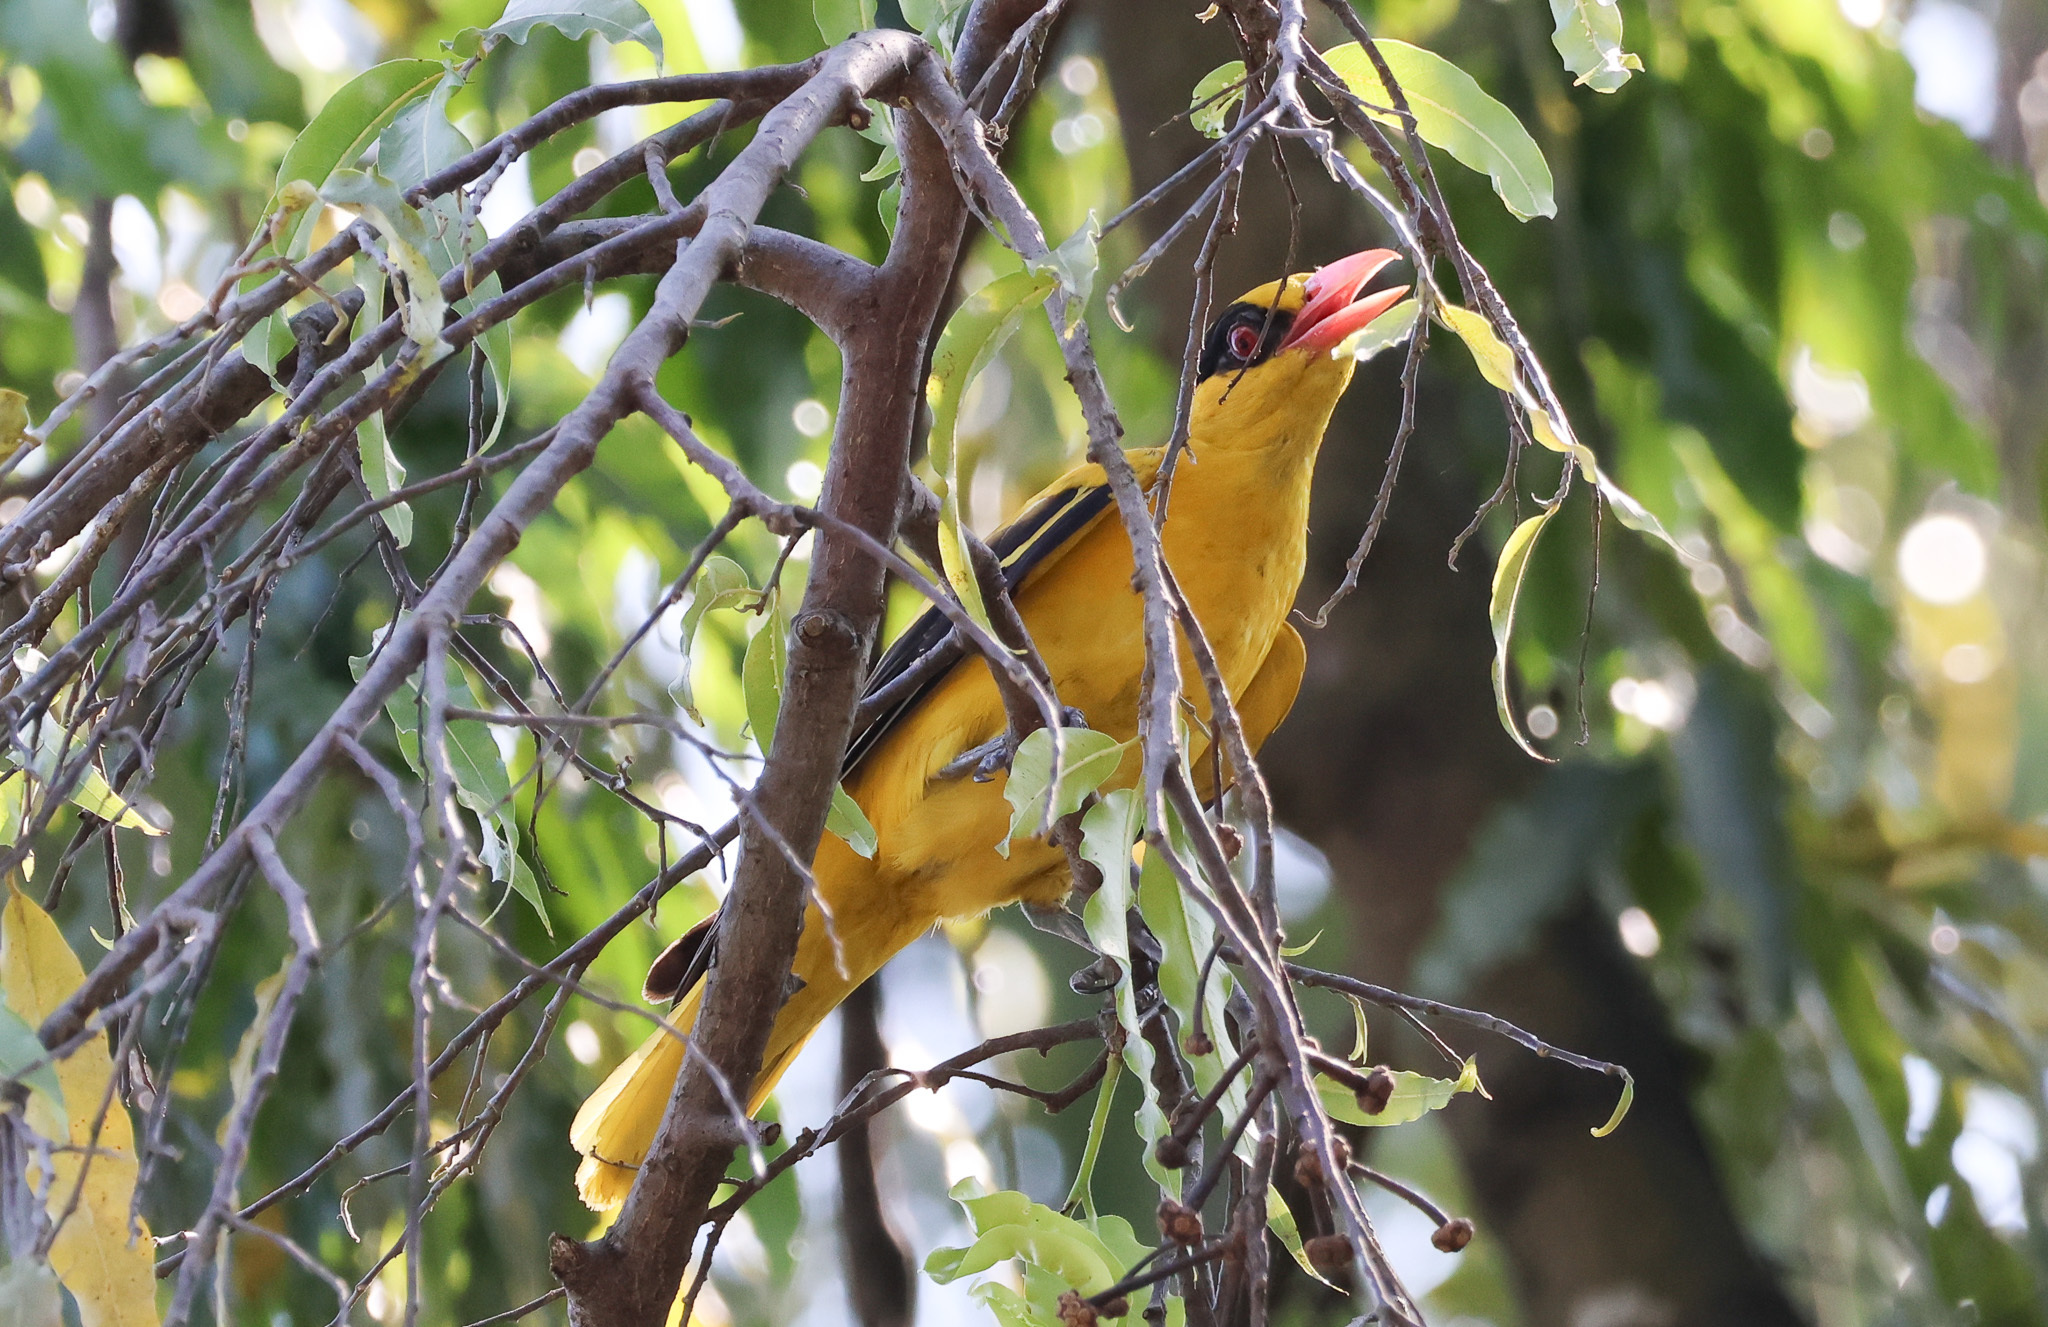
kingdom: Animalia
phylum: Chordata
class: Aves
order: Passeriformes
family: Oriolidae
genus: Oriolus
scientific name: Oriolus chinensis
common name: Black-naped oriole
